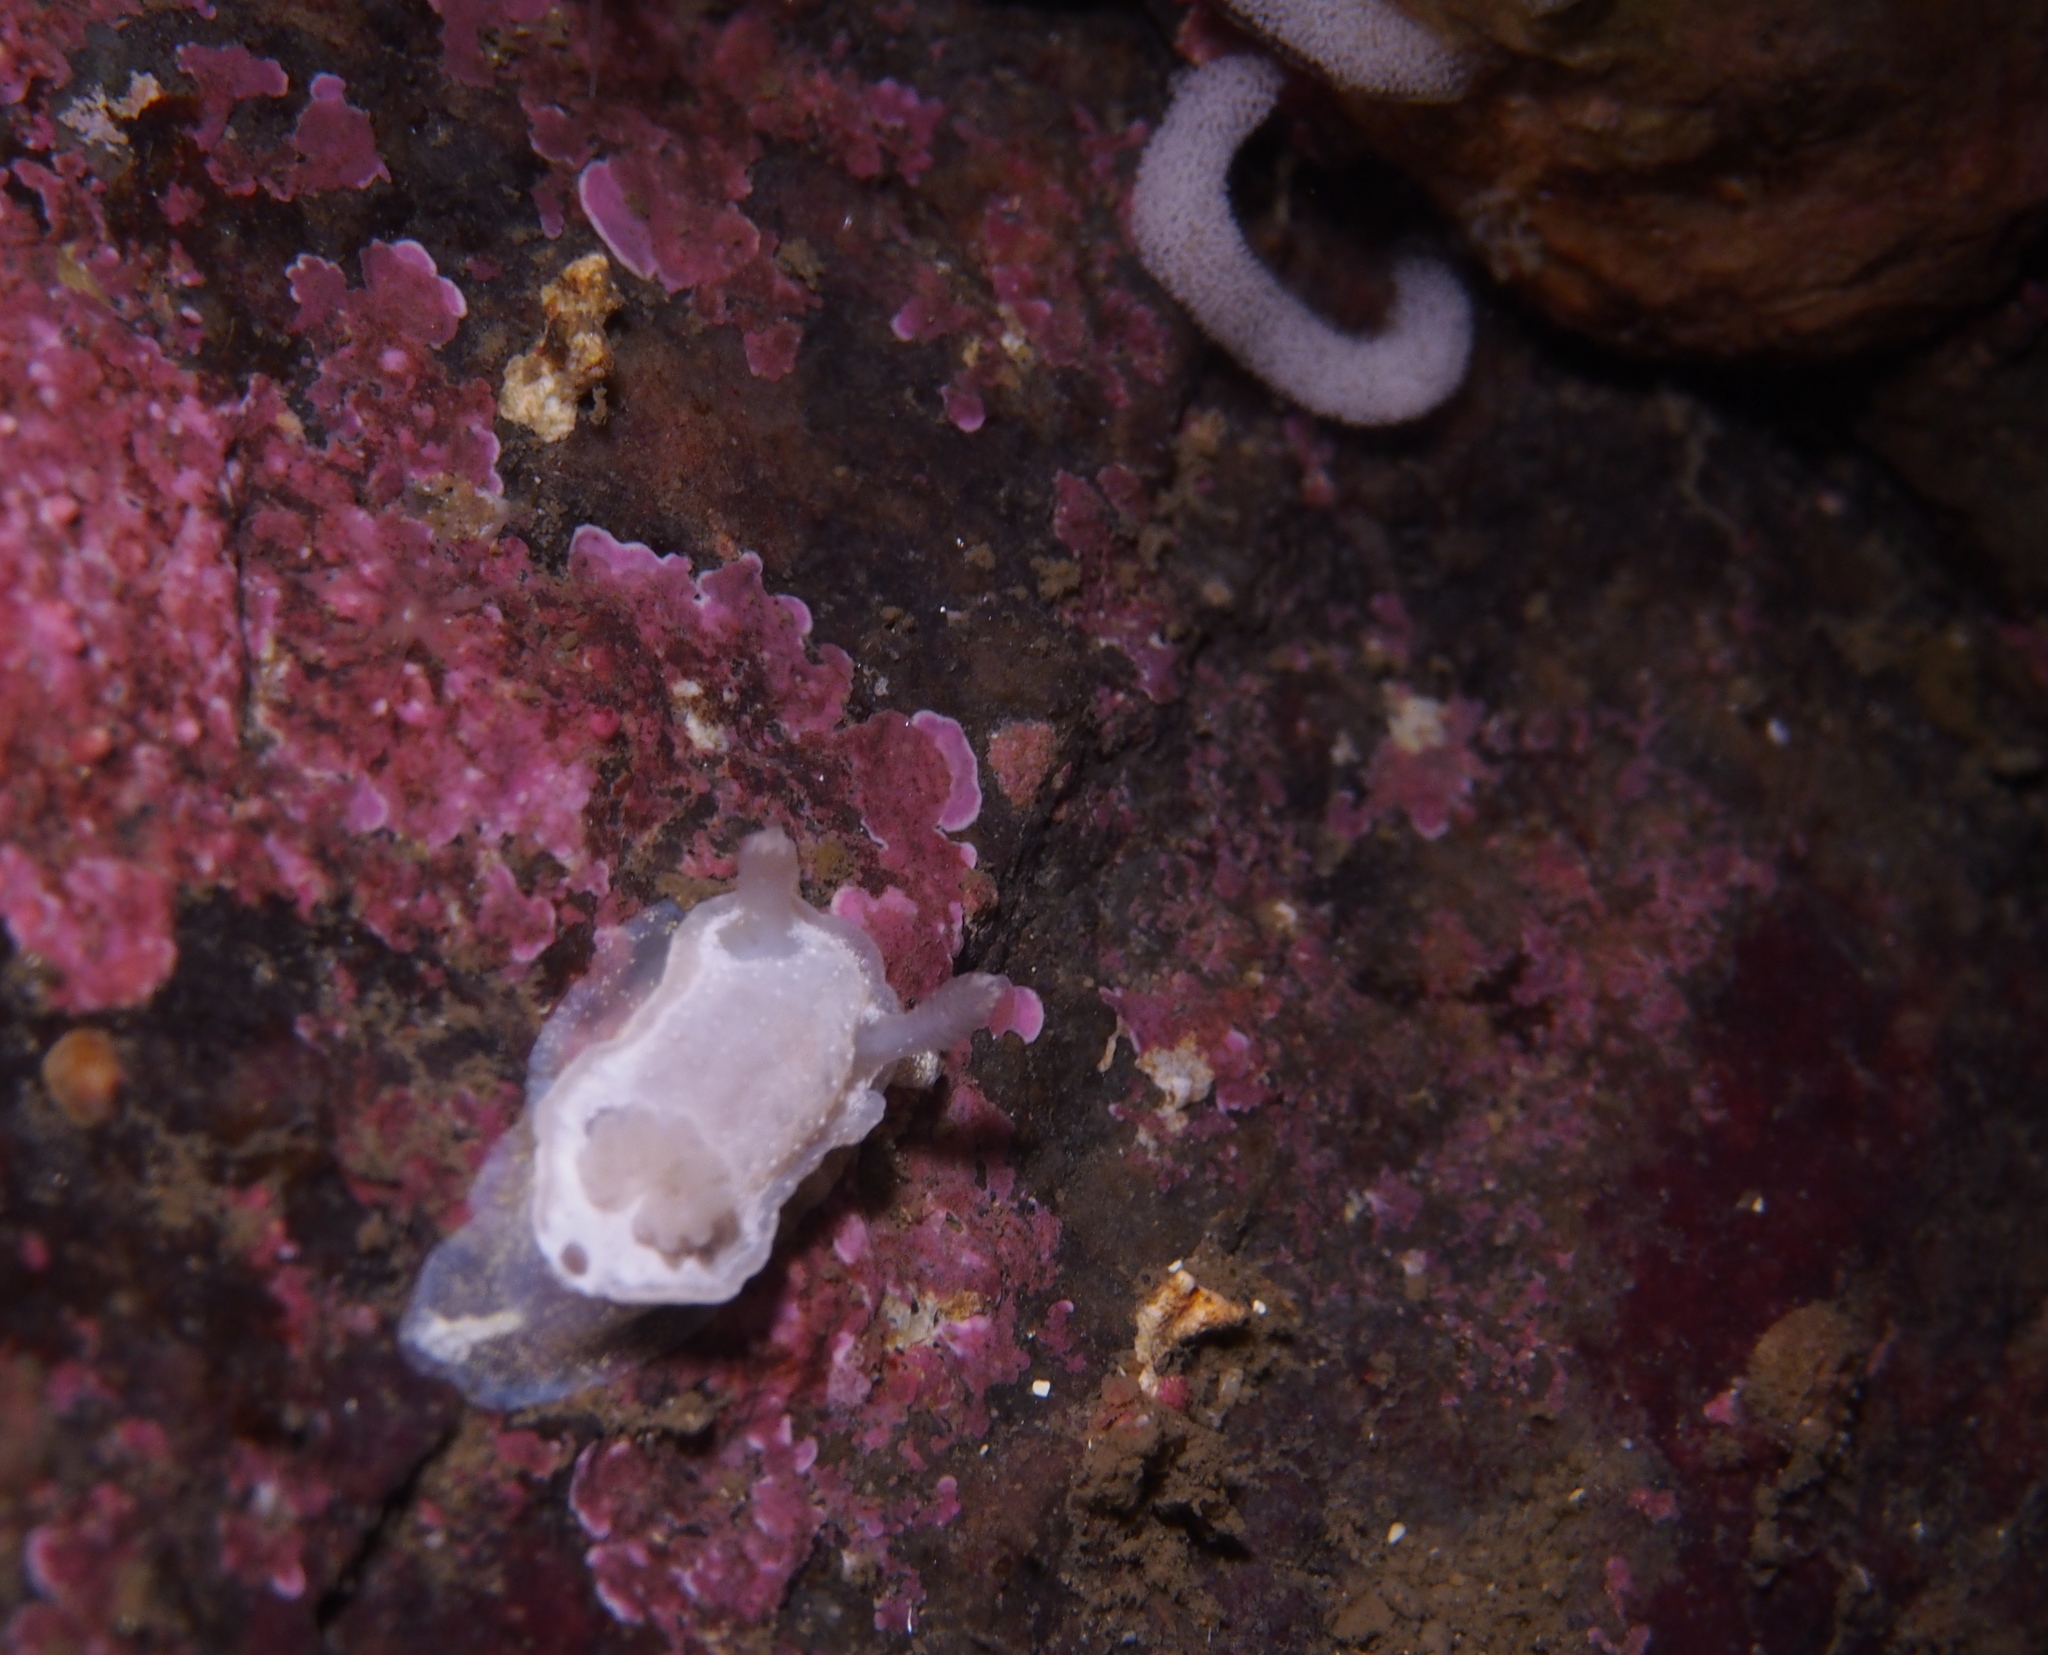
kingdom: Animalia
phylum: Mollusca
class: Gastropoda
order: Nudibranchia
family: Goniodorididae
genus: Okenia
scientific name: Okenia
